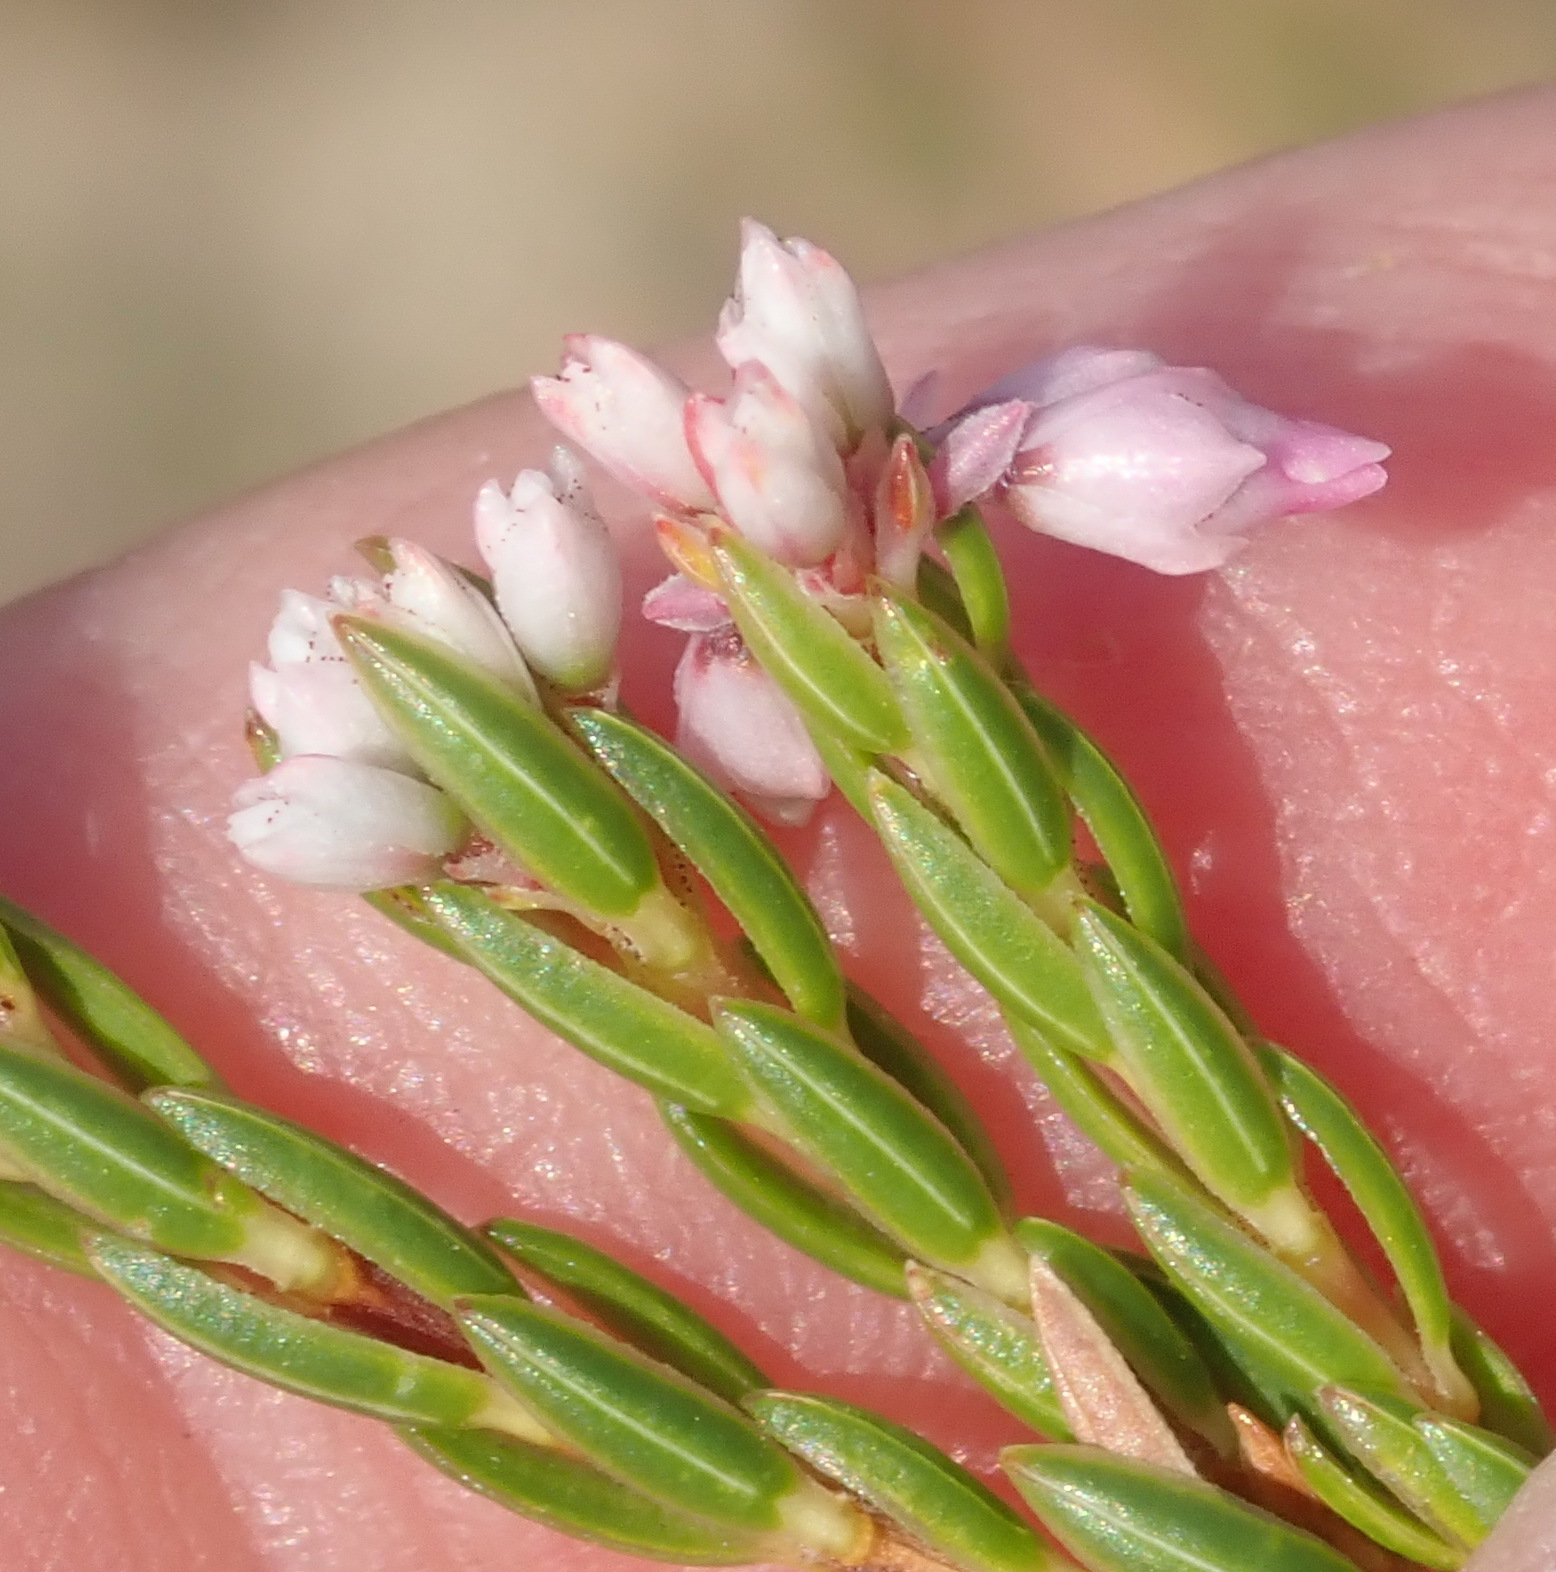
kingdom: Plantae
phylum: Tracheophyta
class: Magnoliopsida
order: Ericales
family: Ericaceae
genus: Erica
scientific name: Erica articularis
